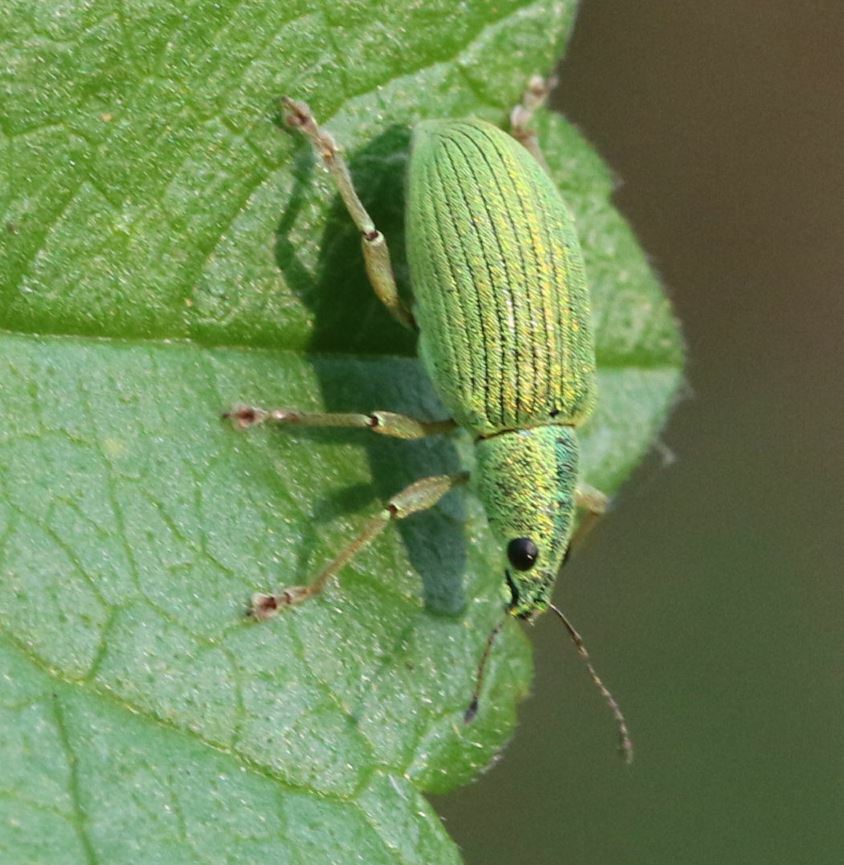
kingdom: Animalia
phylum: Arthropoda
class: Insecta
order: Coleoptera
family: Curculionidae
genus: Polydrusus
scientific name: Polydrusus formosus
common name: Weevil
